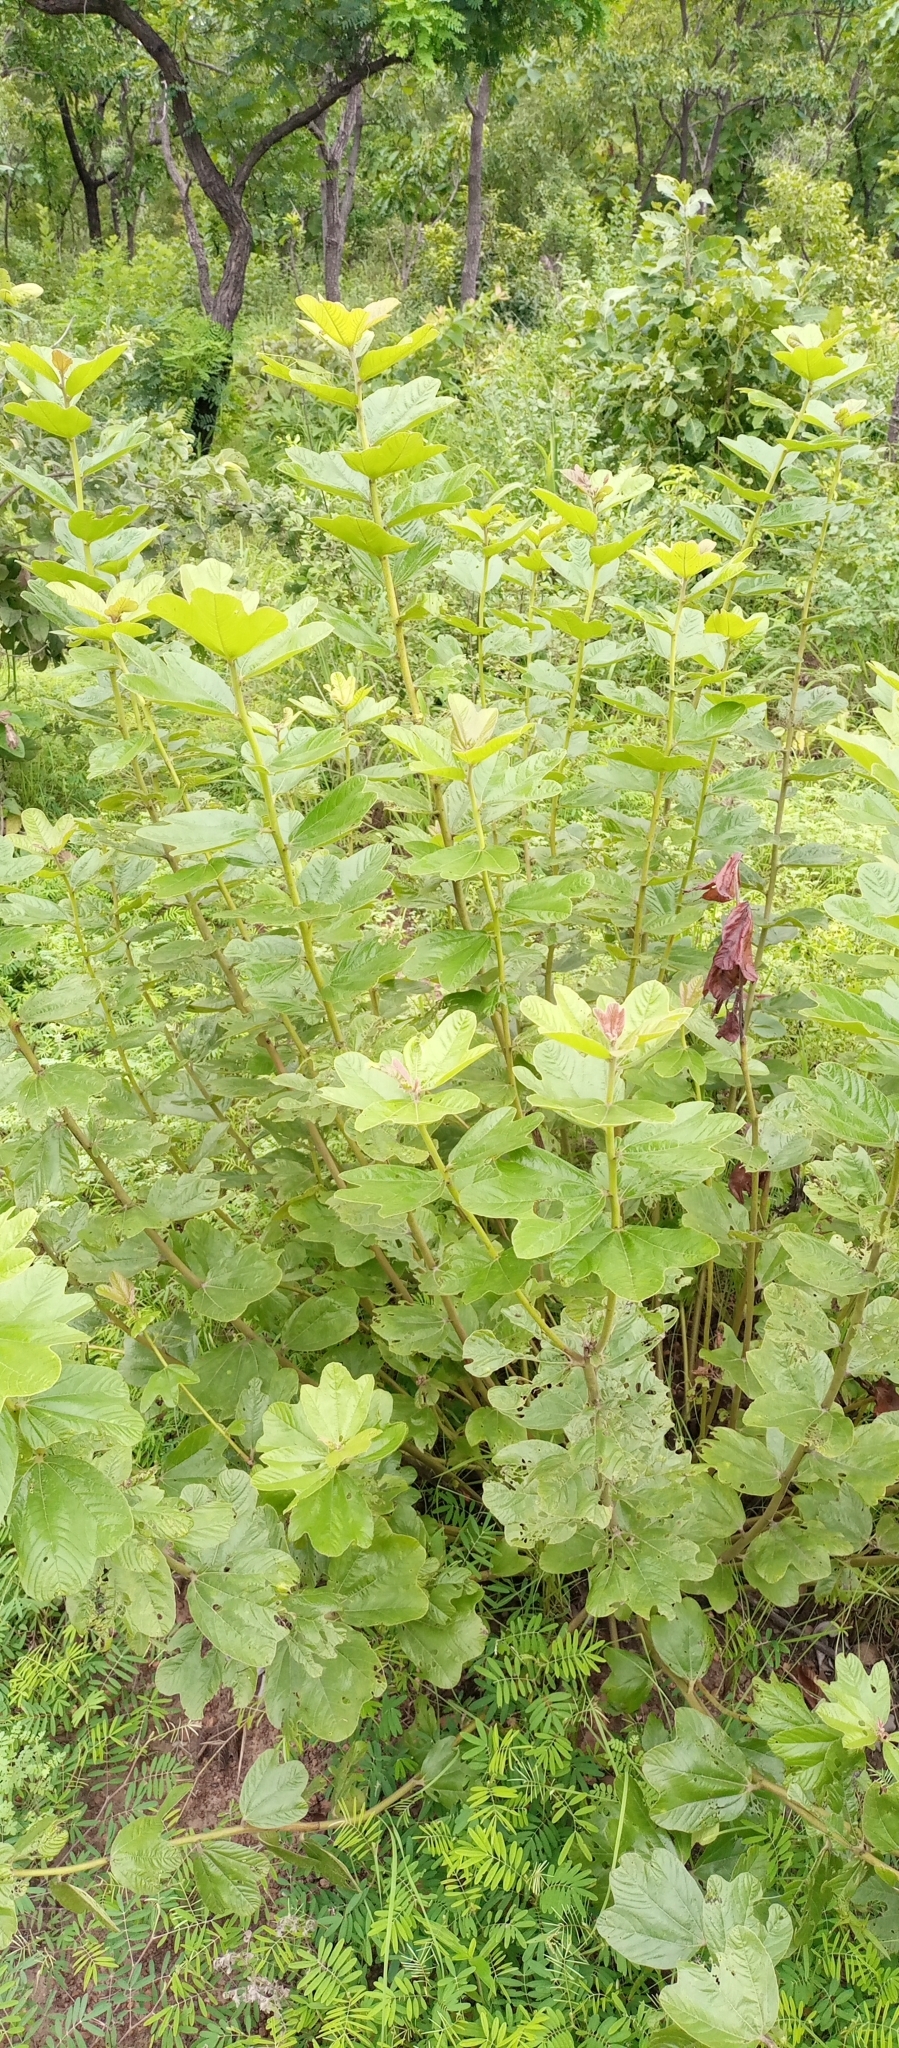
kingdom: Plantae
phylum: Tracheophyta
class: Magnoliopsida
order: Malvales
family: Cochlospermaceae
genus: Cochlospermum
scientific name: Cochlospermum planchonii
